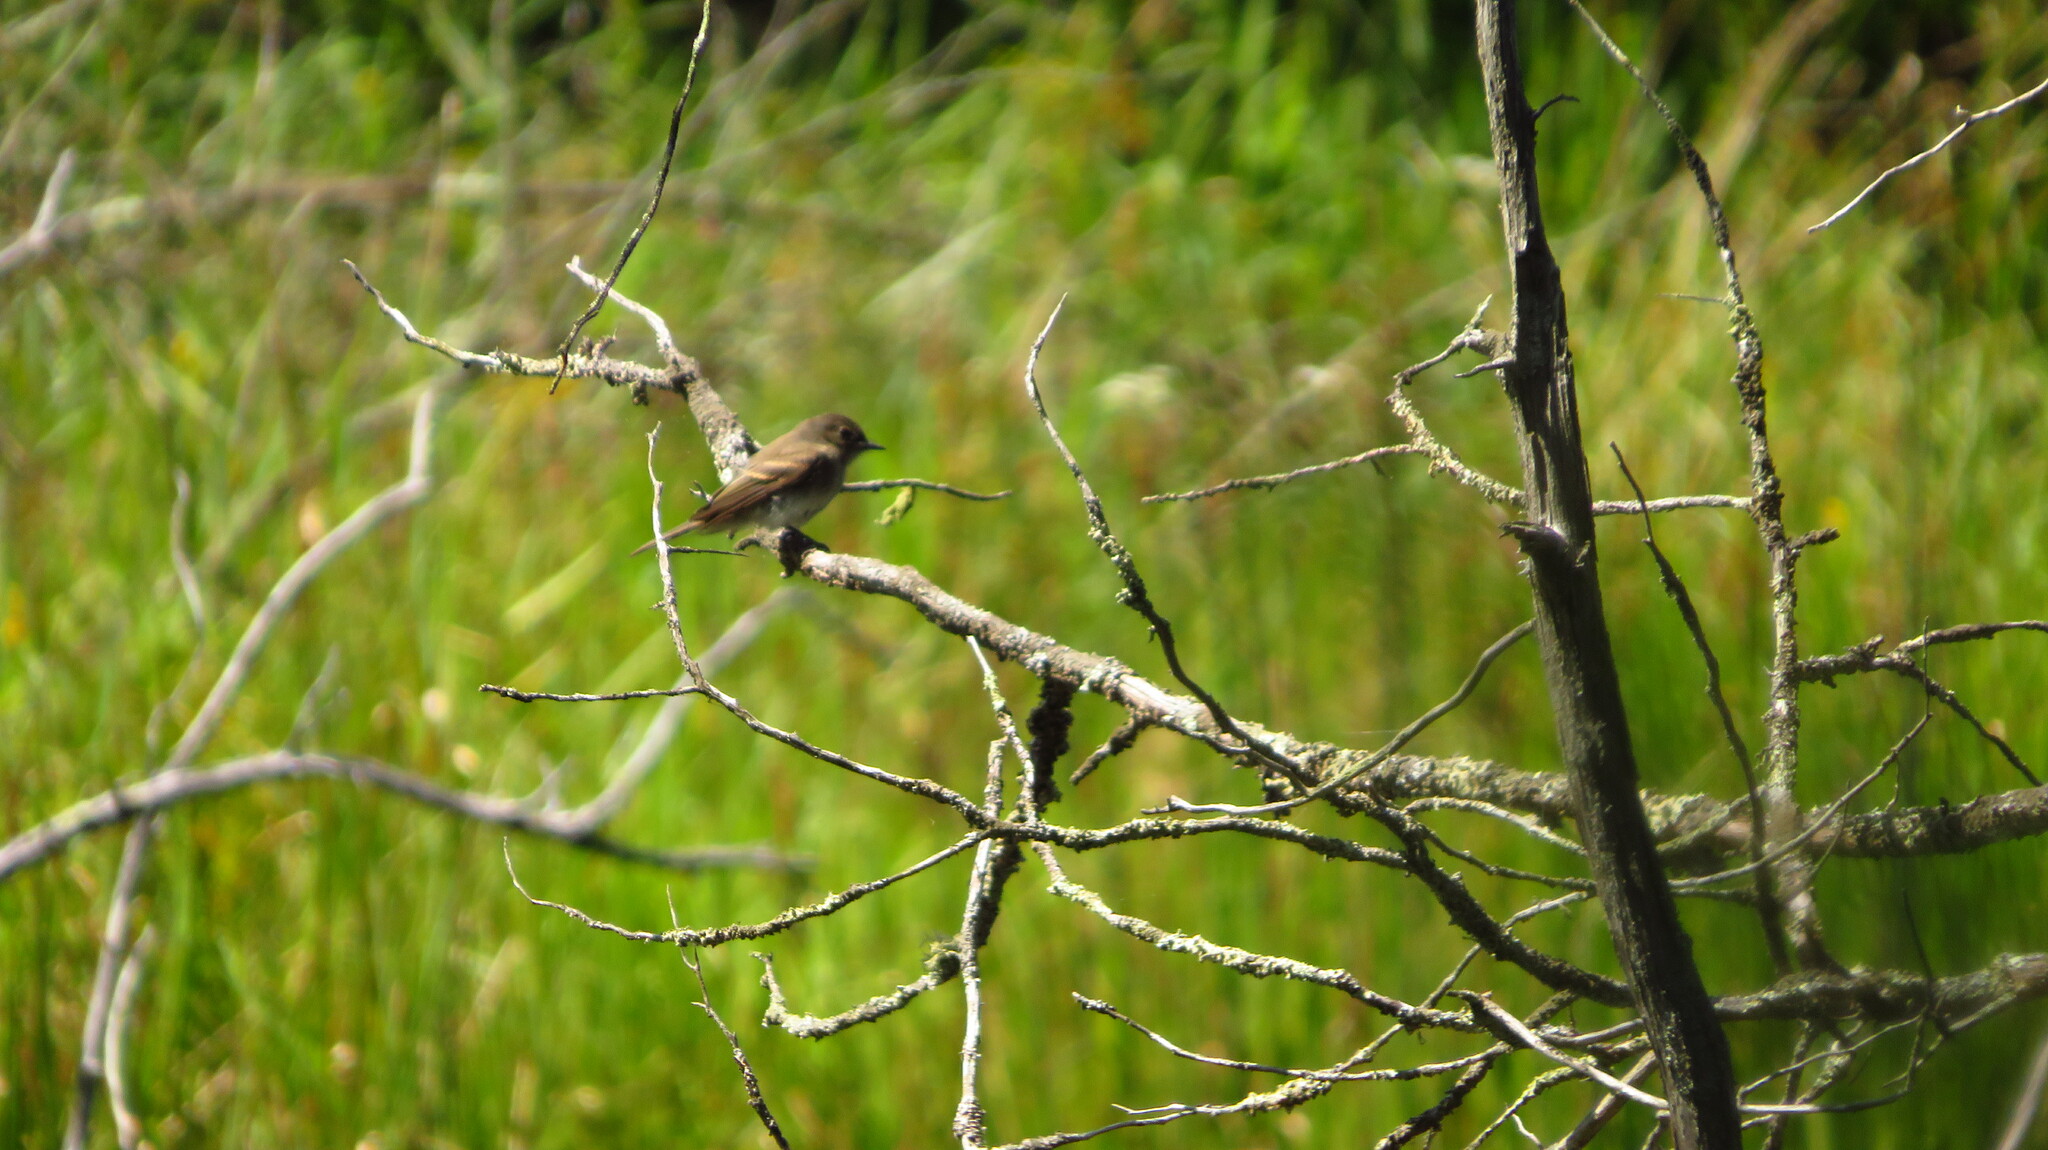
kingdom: Animalia
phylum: Chordata
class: Aves
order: Passeriformes
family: Tyrannidae
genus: Sayornis
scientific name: Sayornis phoebe
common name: Eastern phoebe
